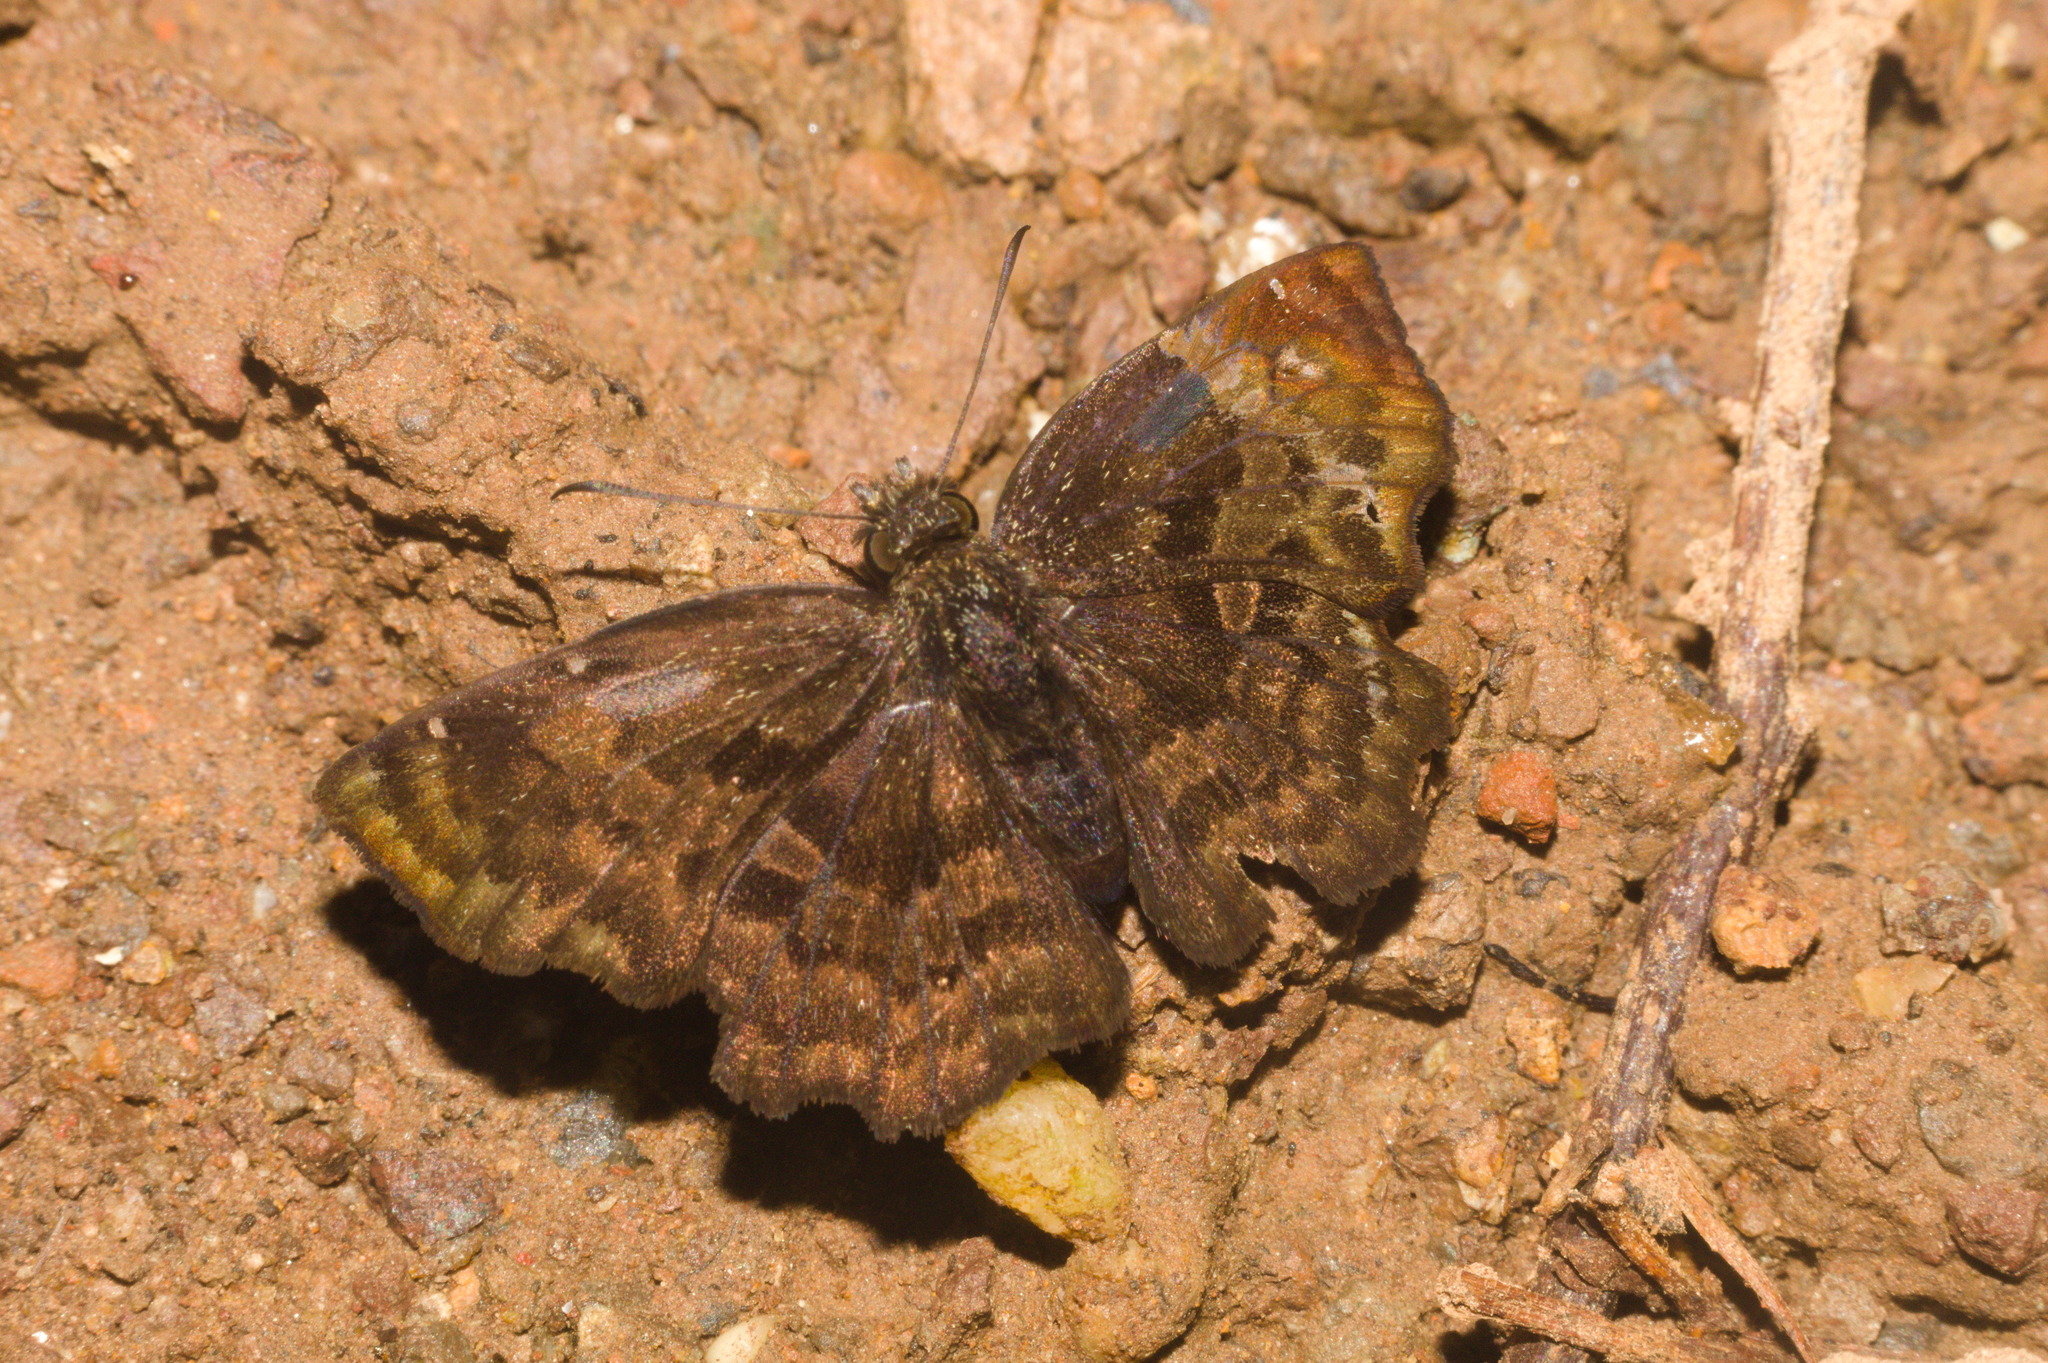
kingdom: Animalia
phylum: Arthropoda
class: Insecta
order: Lepidoptera
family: Hesperiidae
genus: Antigonus
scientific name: Antigonus liborius
